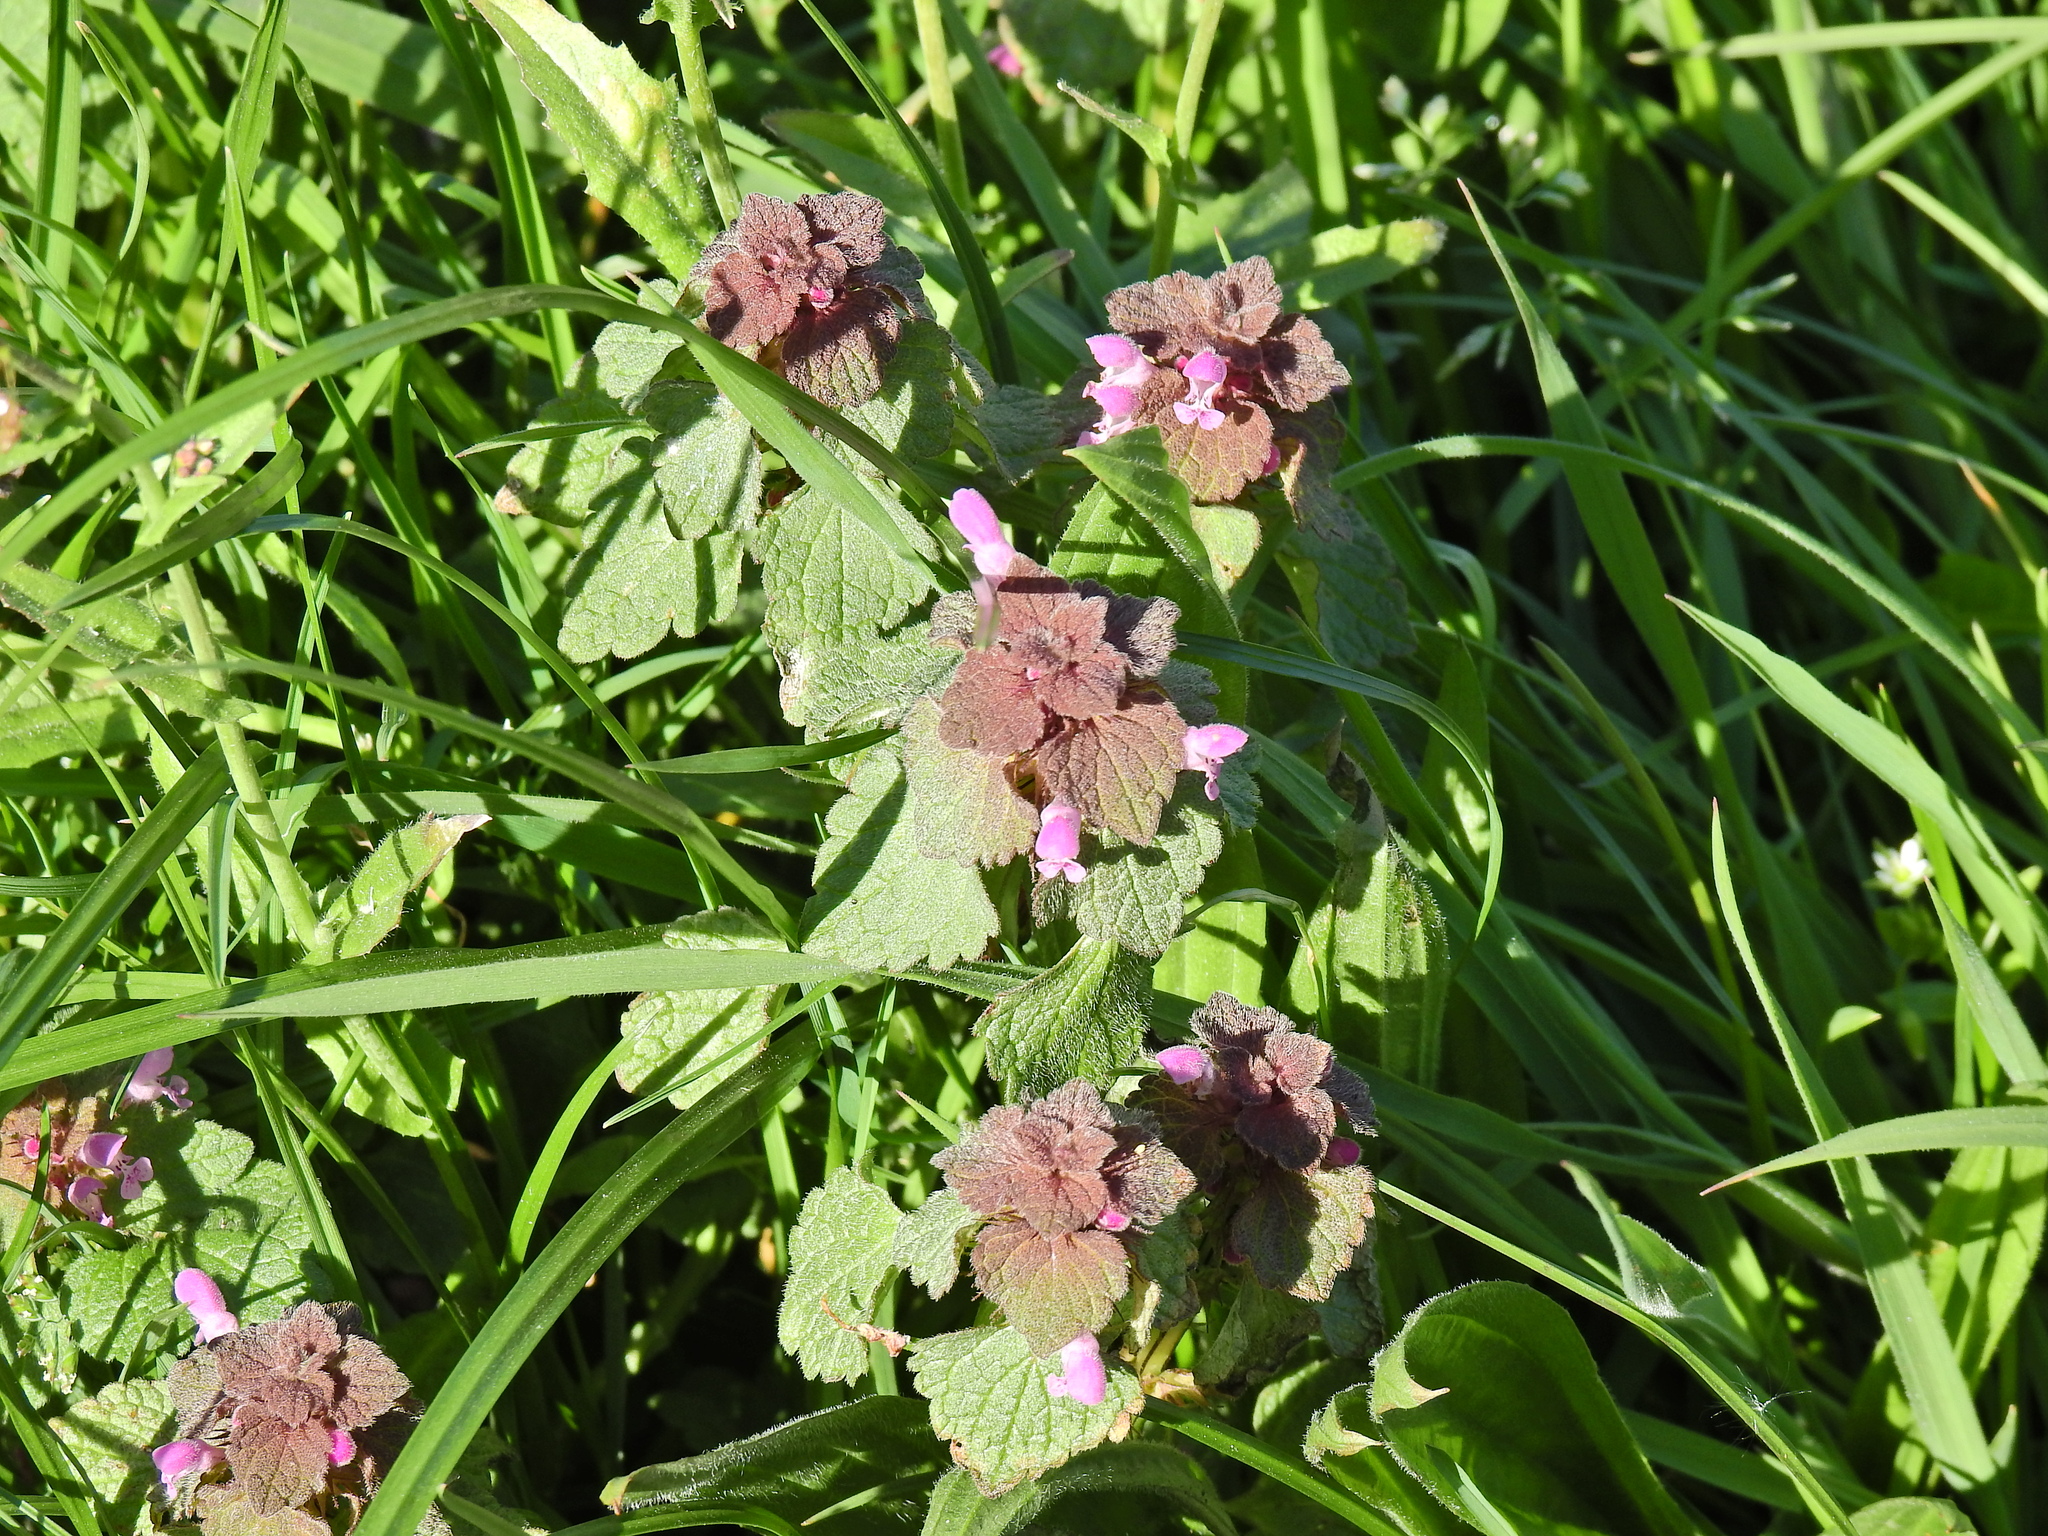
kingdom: Plantae
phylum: Tracheophyta
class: Magnoliopsida
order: Lamiales
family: Lamiaceae
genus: Lamium
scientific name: Lamium purpureum
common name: Red dead-nettle
